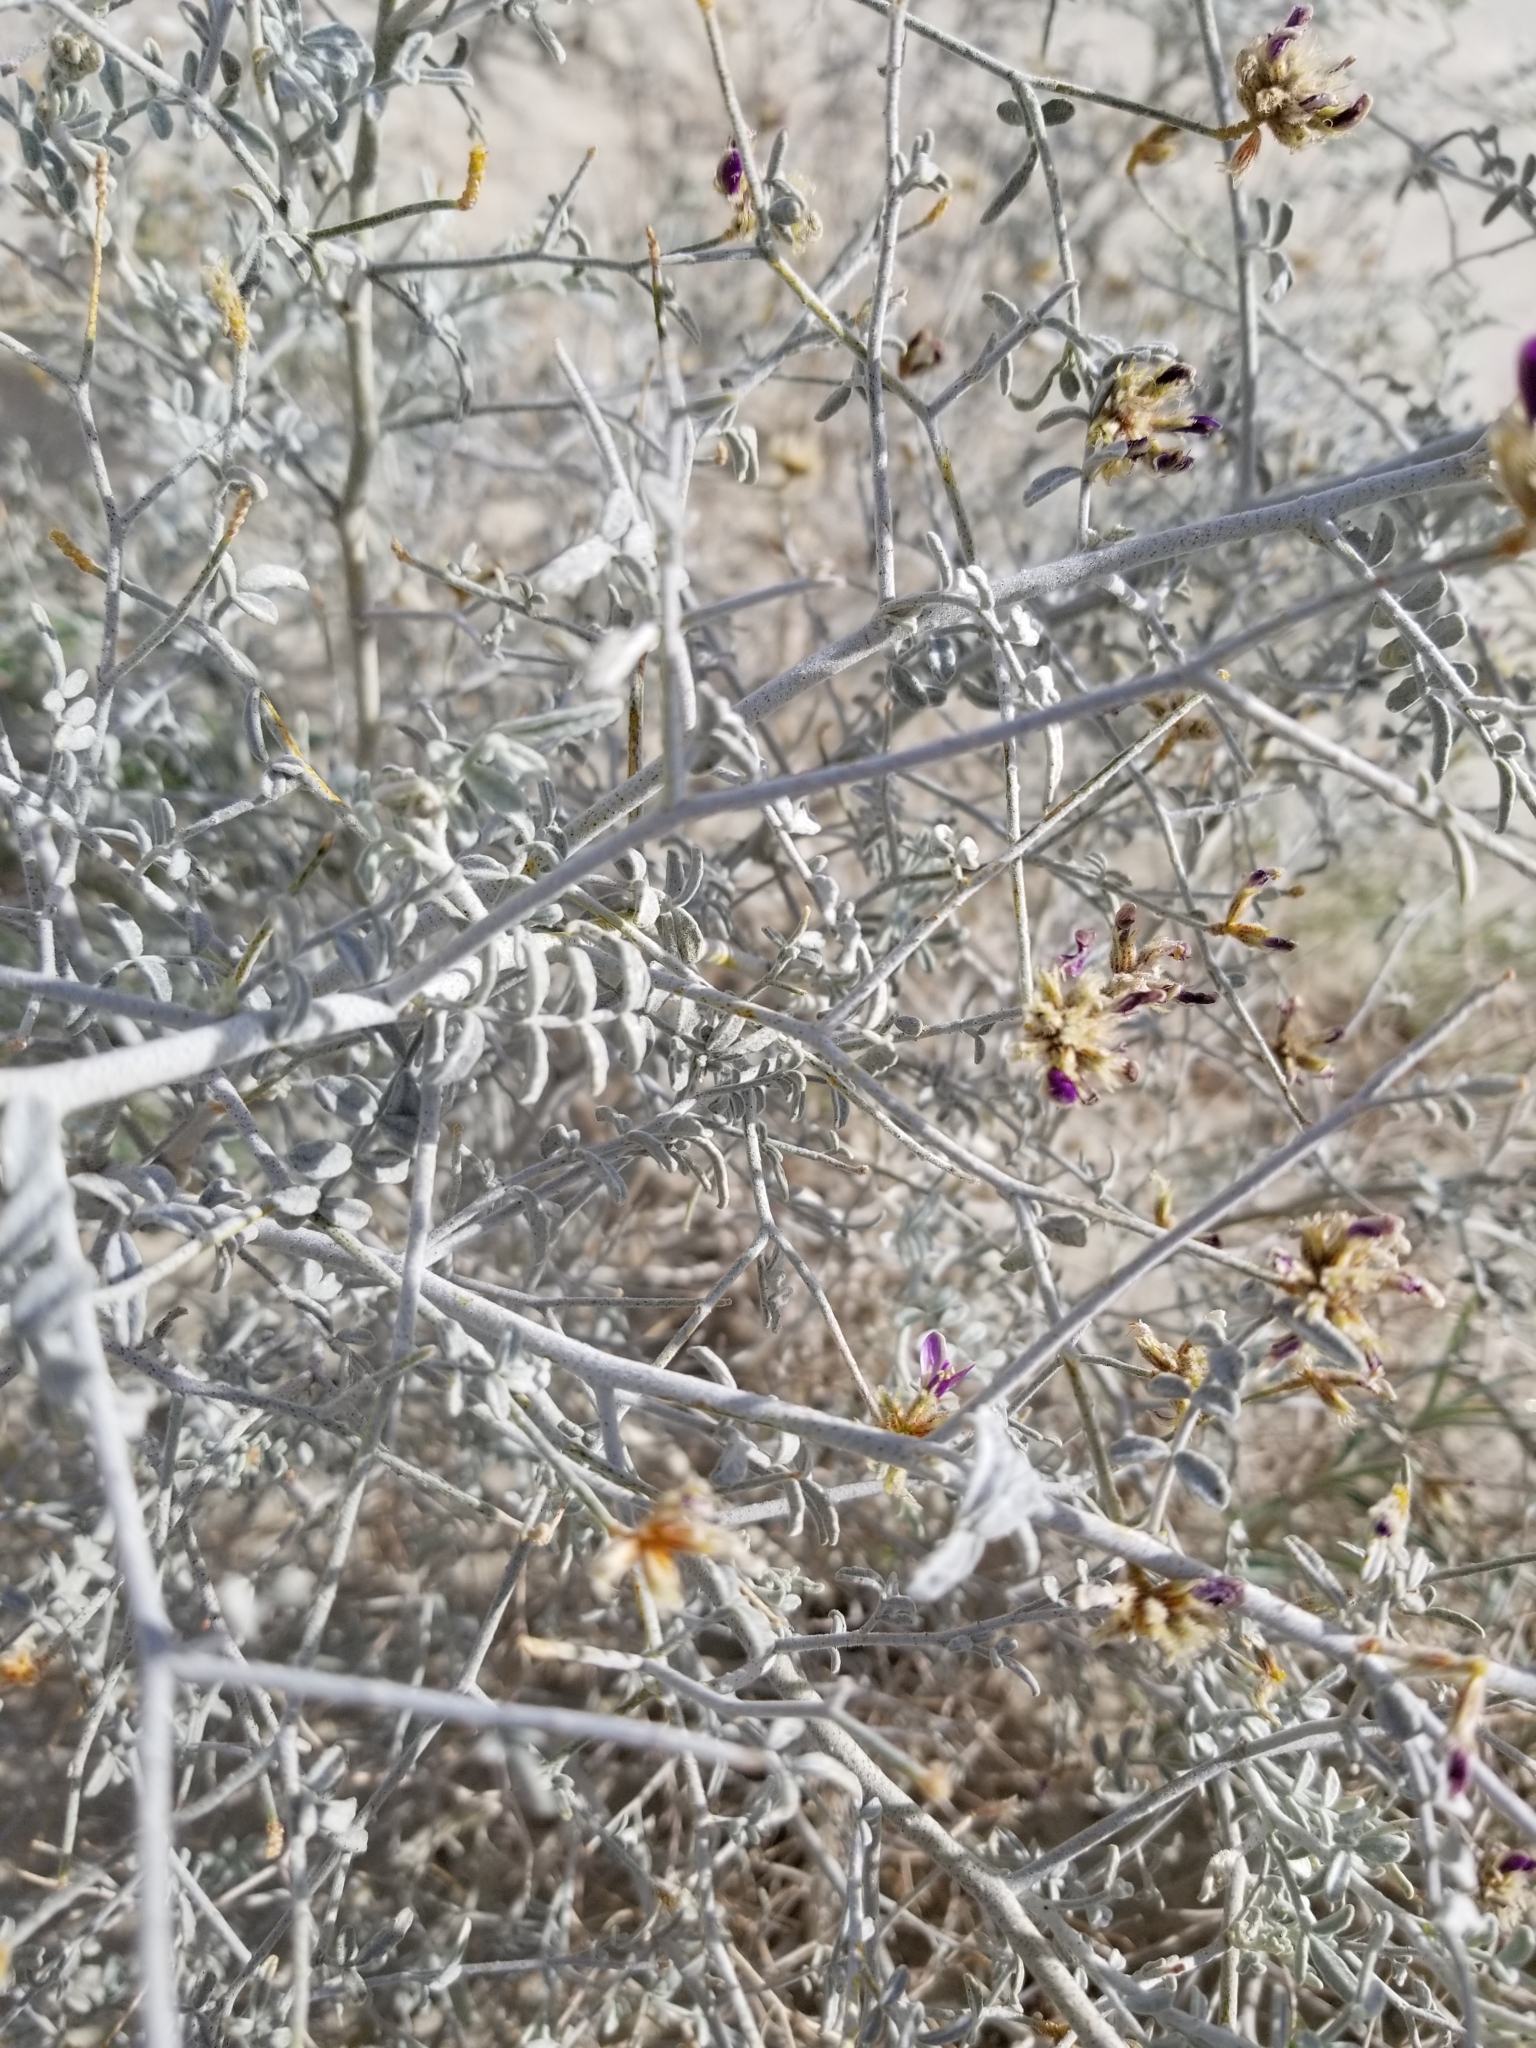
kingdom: Plantae
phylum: Tracheophyta
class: Magnoliopsida
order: Fabales
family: Fabaceae
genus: Psorothamnus
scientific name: Psorothamnus emoryi
